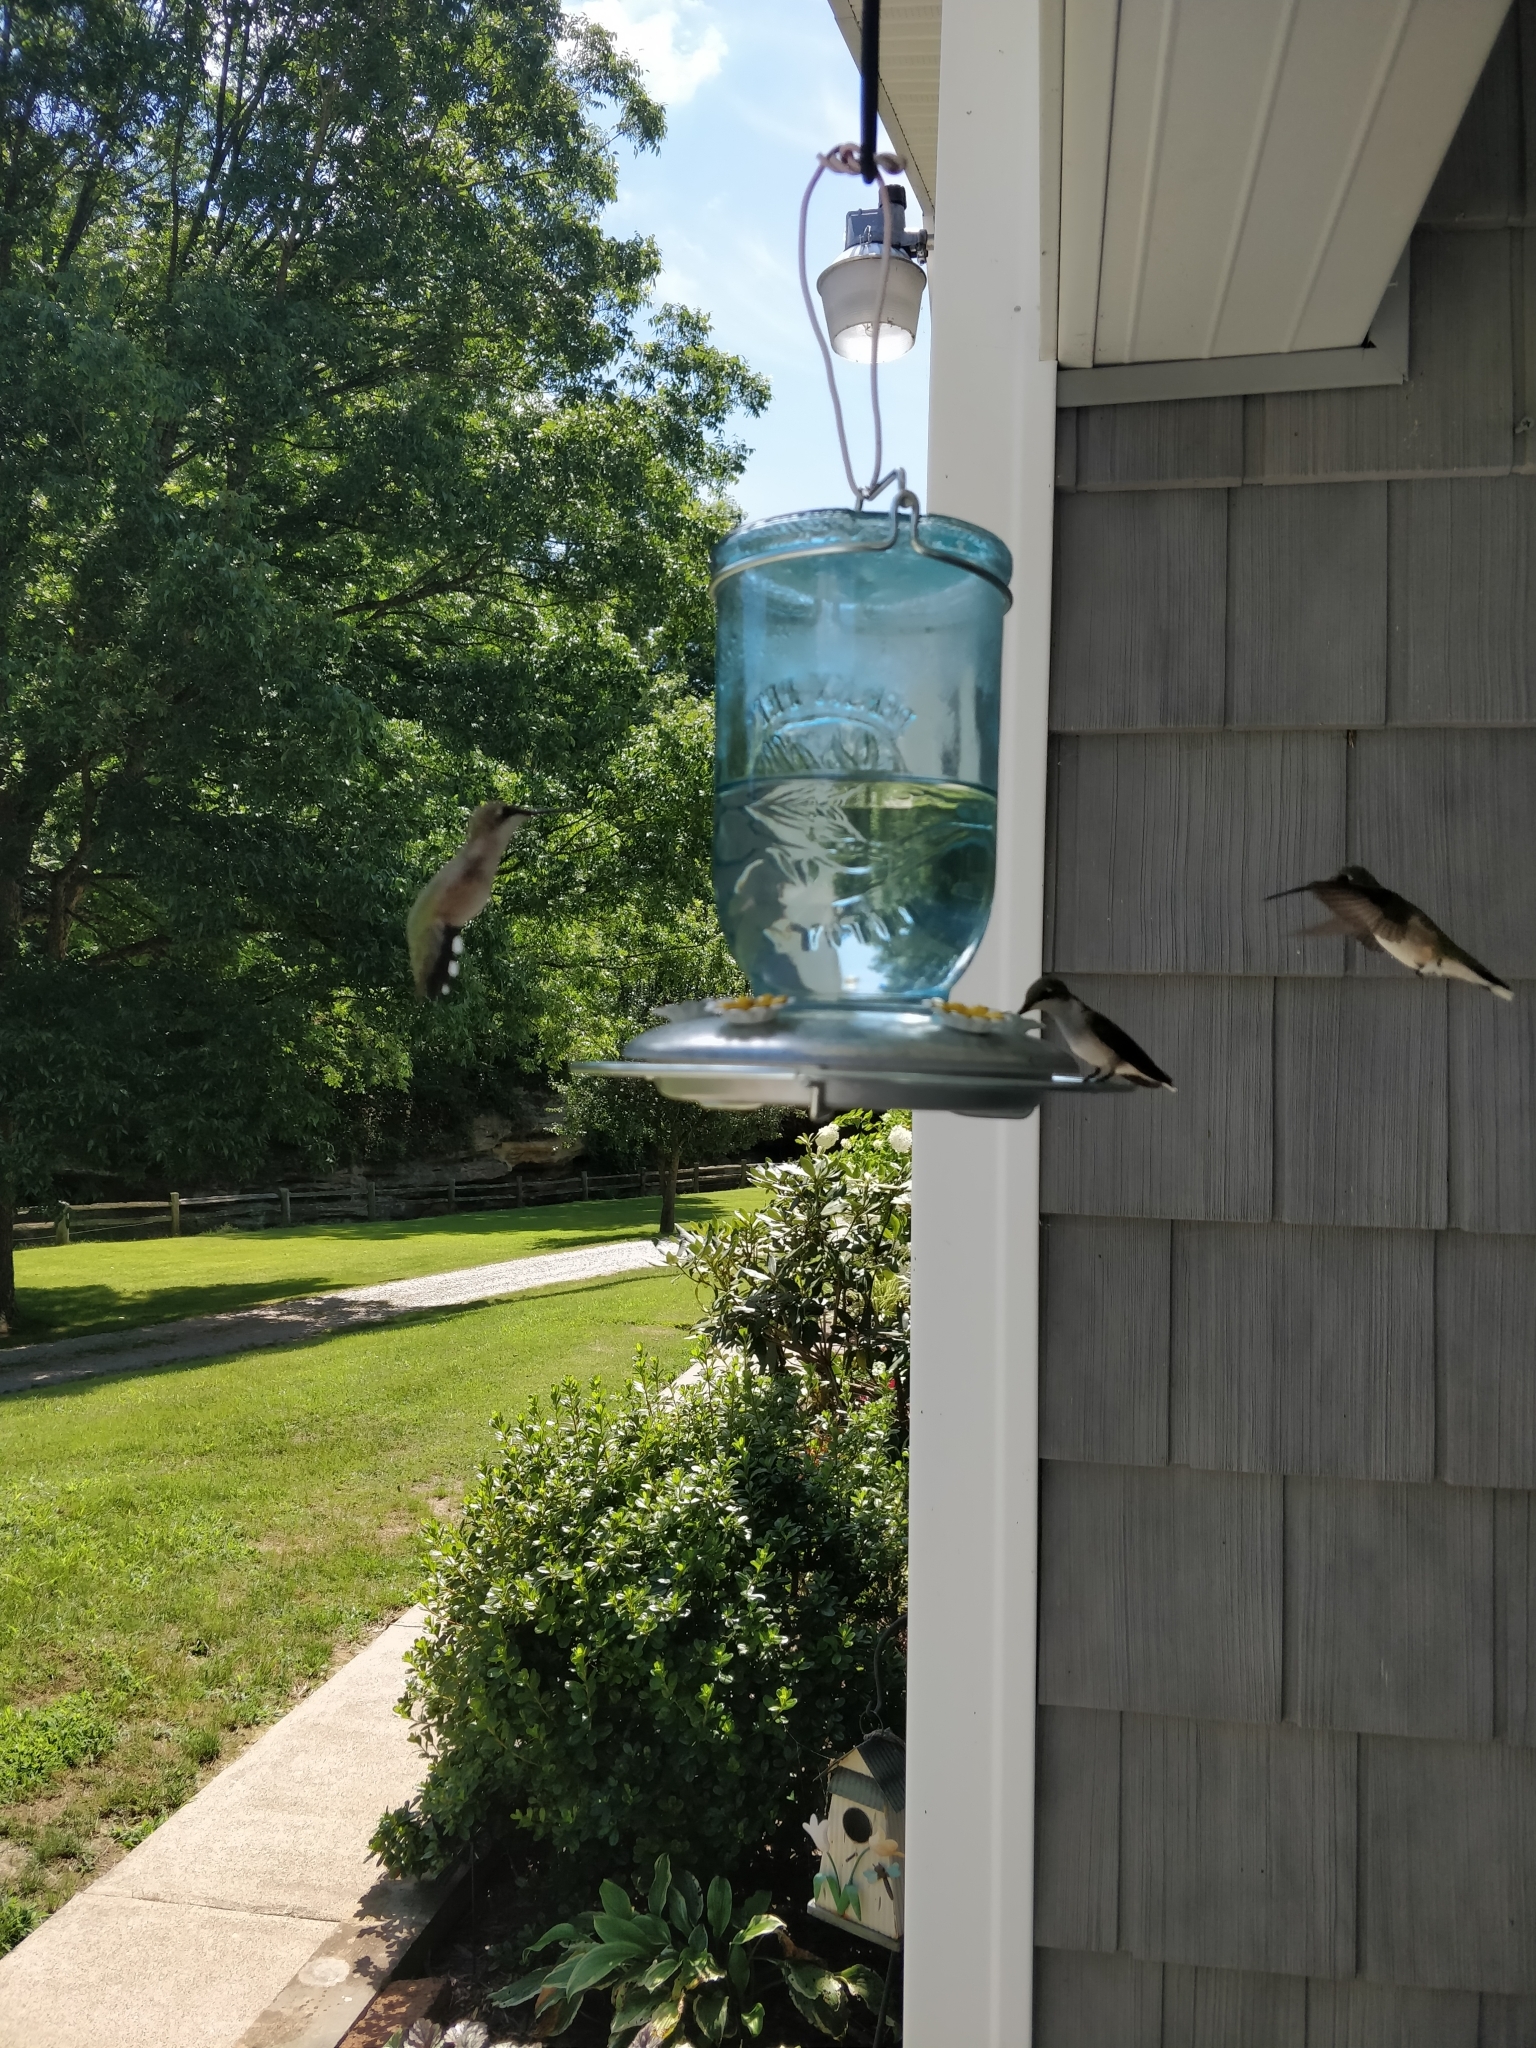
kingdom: Animalia
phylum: Chordata
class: Aves
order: Apodiformes
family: Trochilidae
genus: Archilochus
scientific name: Archilochus colubris
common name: Ruby-throated hummingbird
